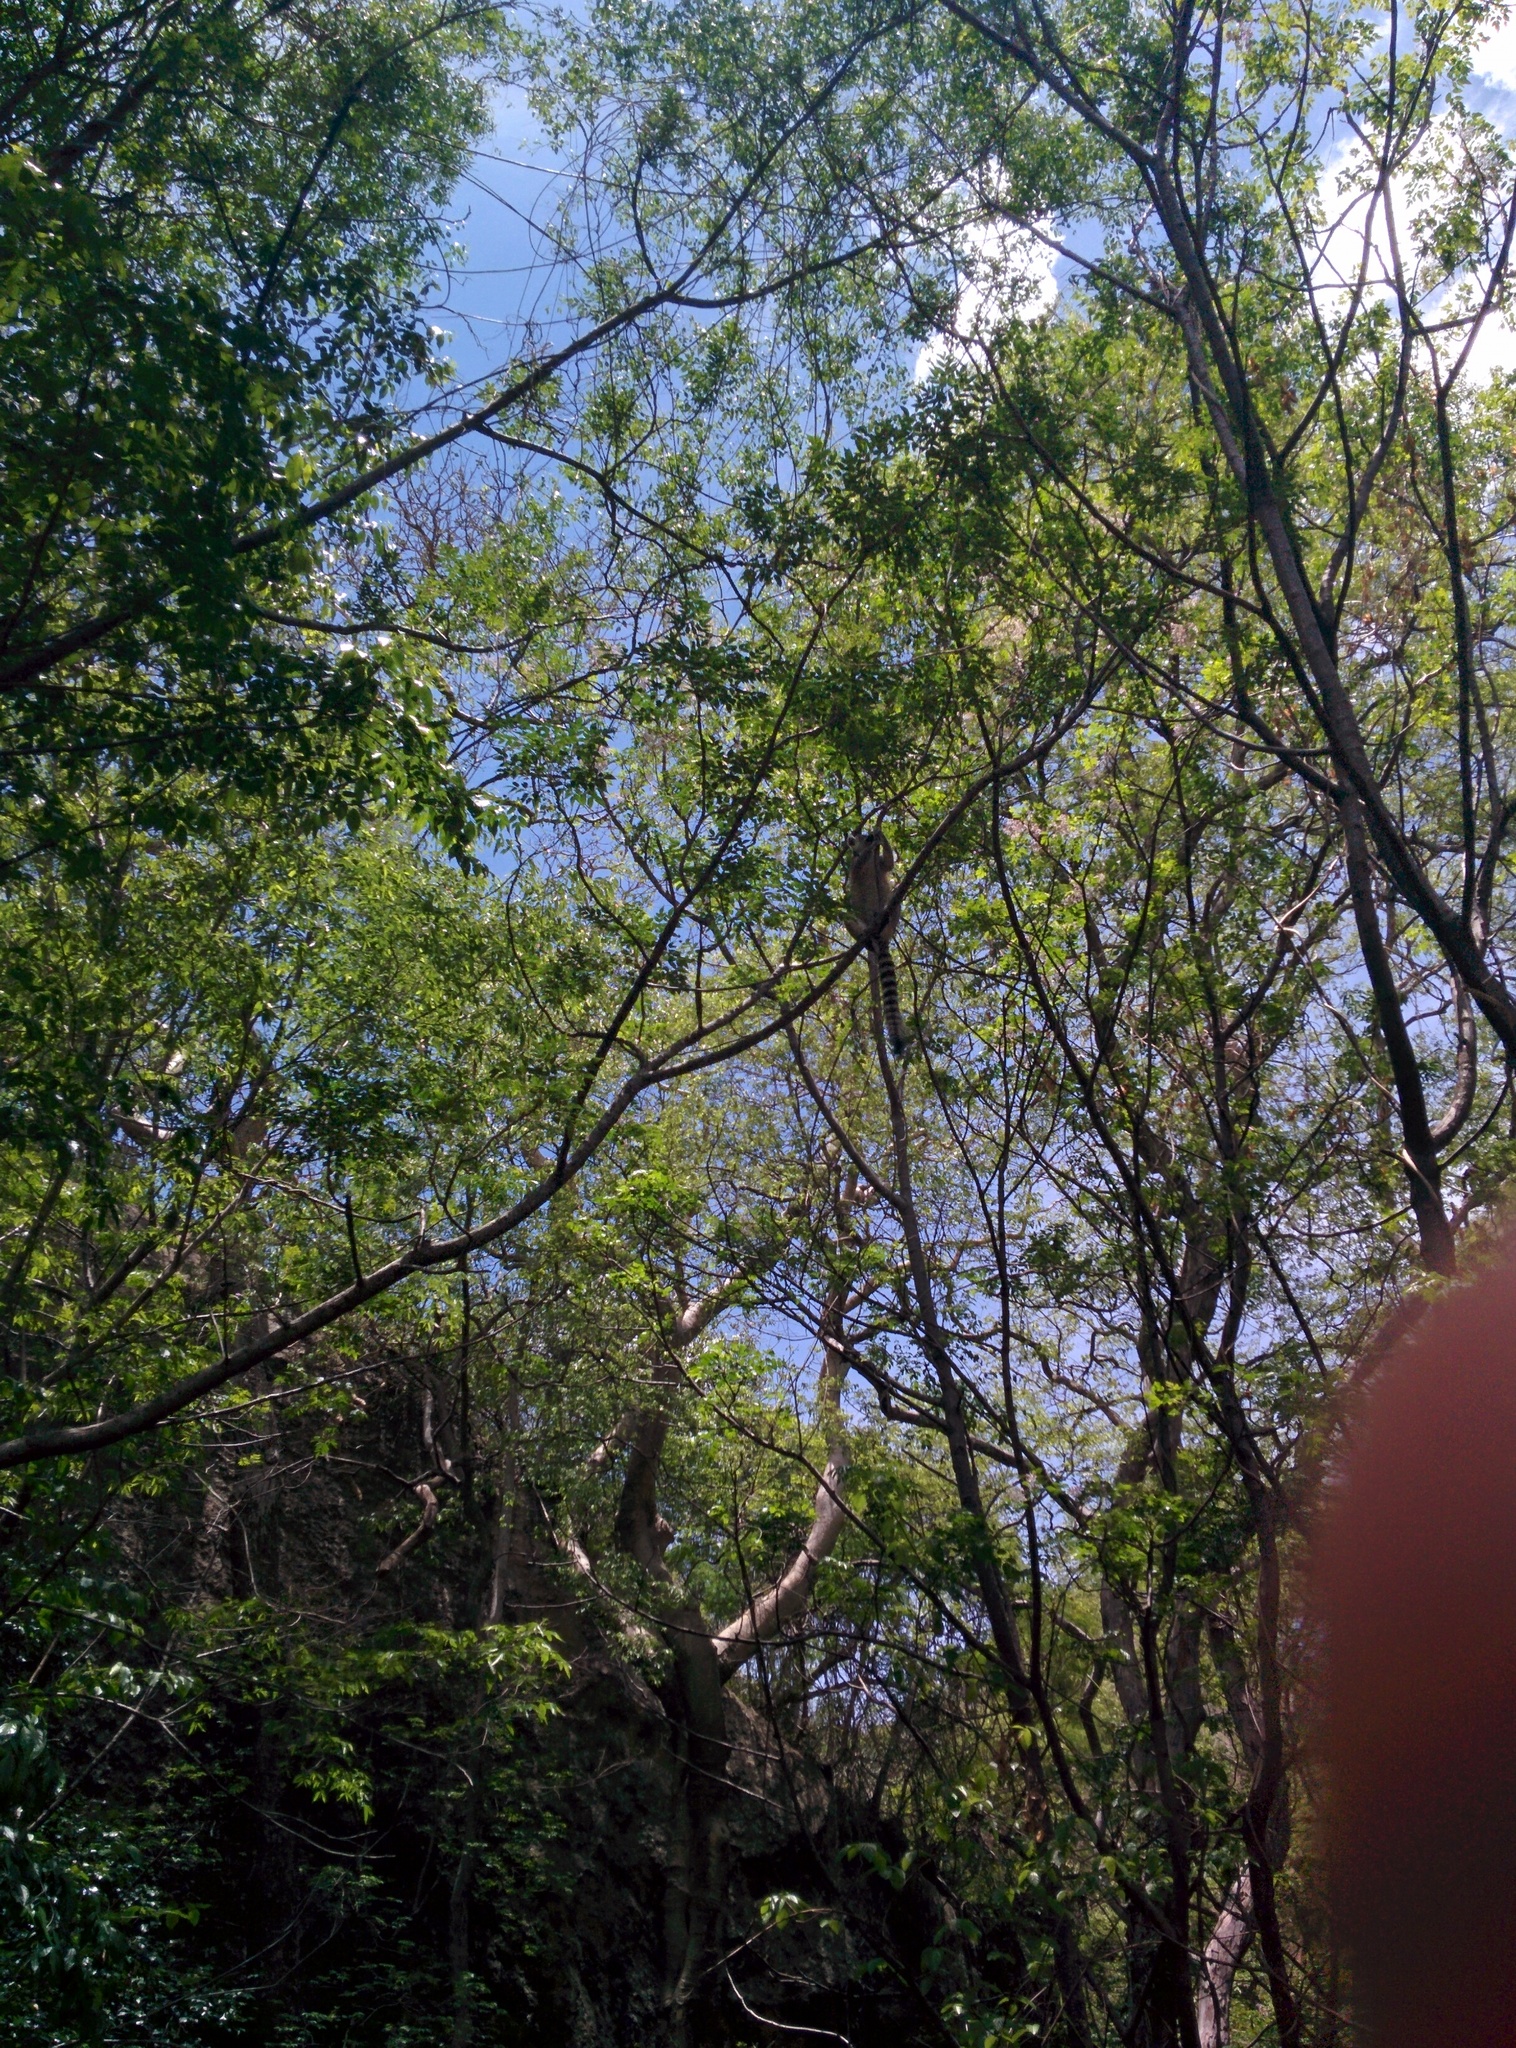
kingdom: Animalia
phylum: Chordata
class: Mammalia
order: Primates
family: Lemuridae
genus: Lemur
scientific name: Lemur catta
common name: Ring-tailed lemur
